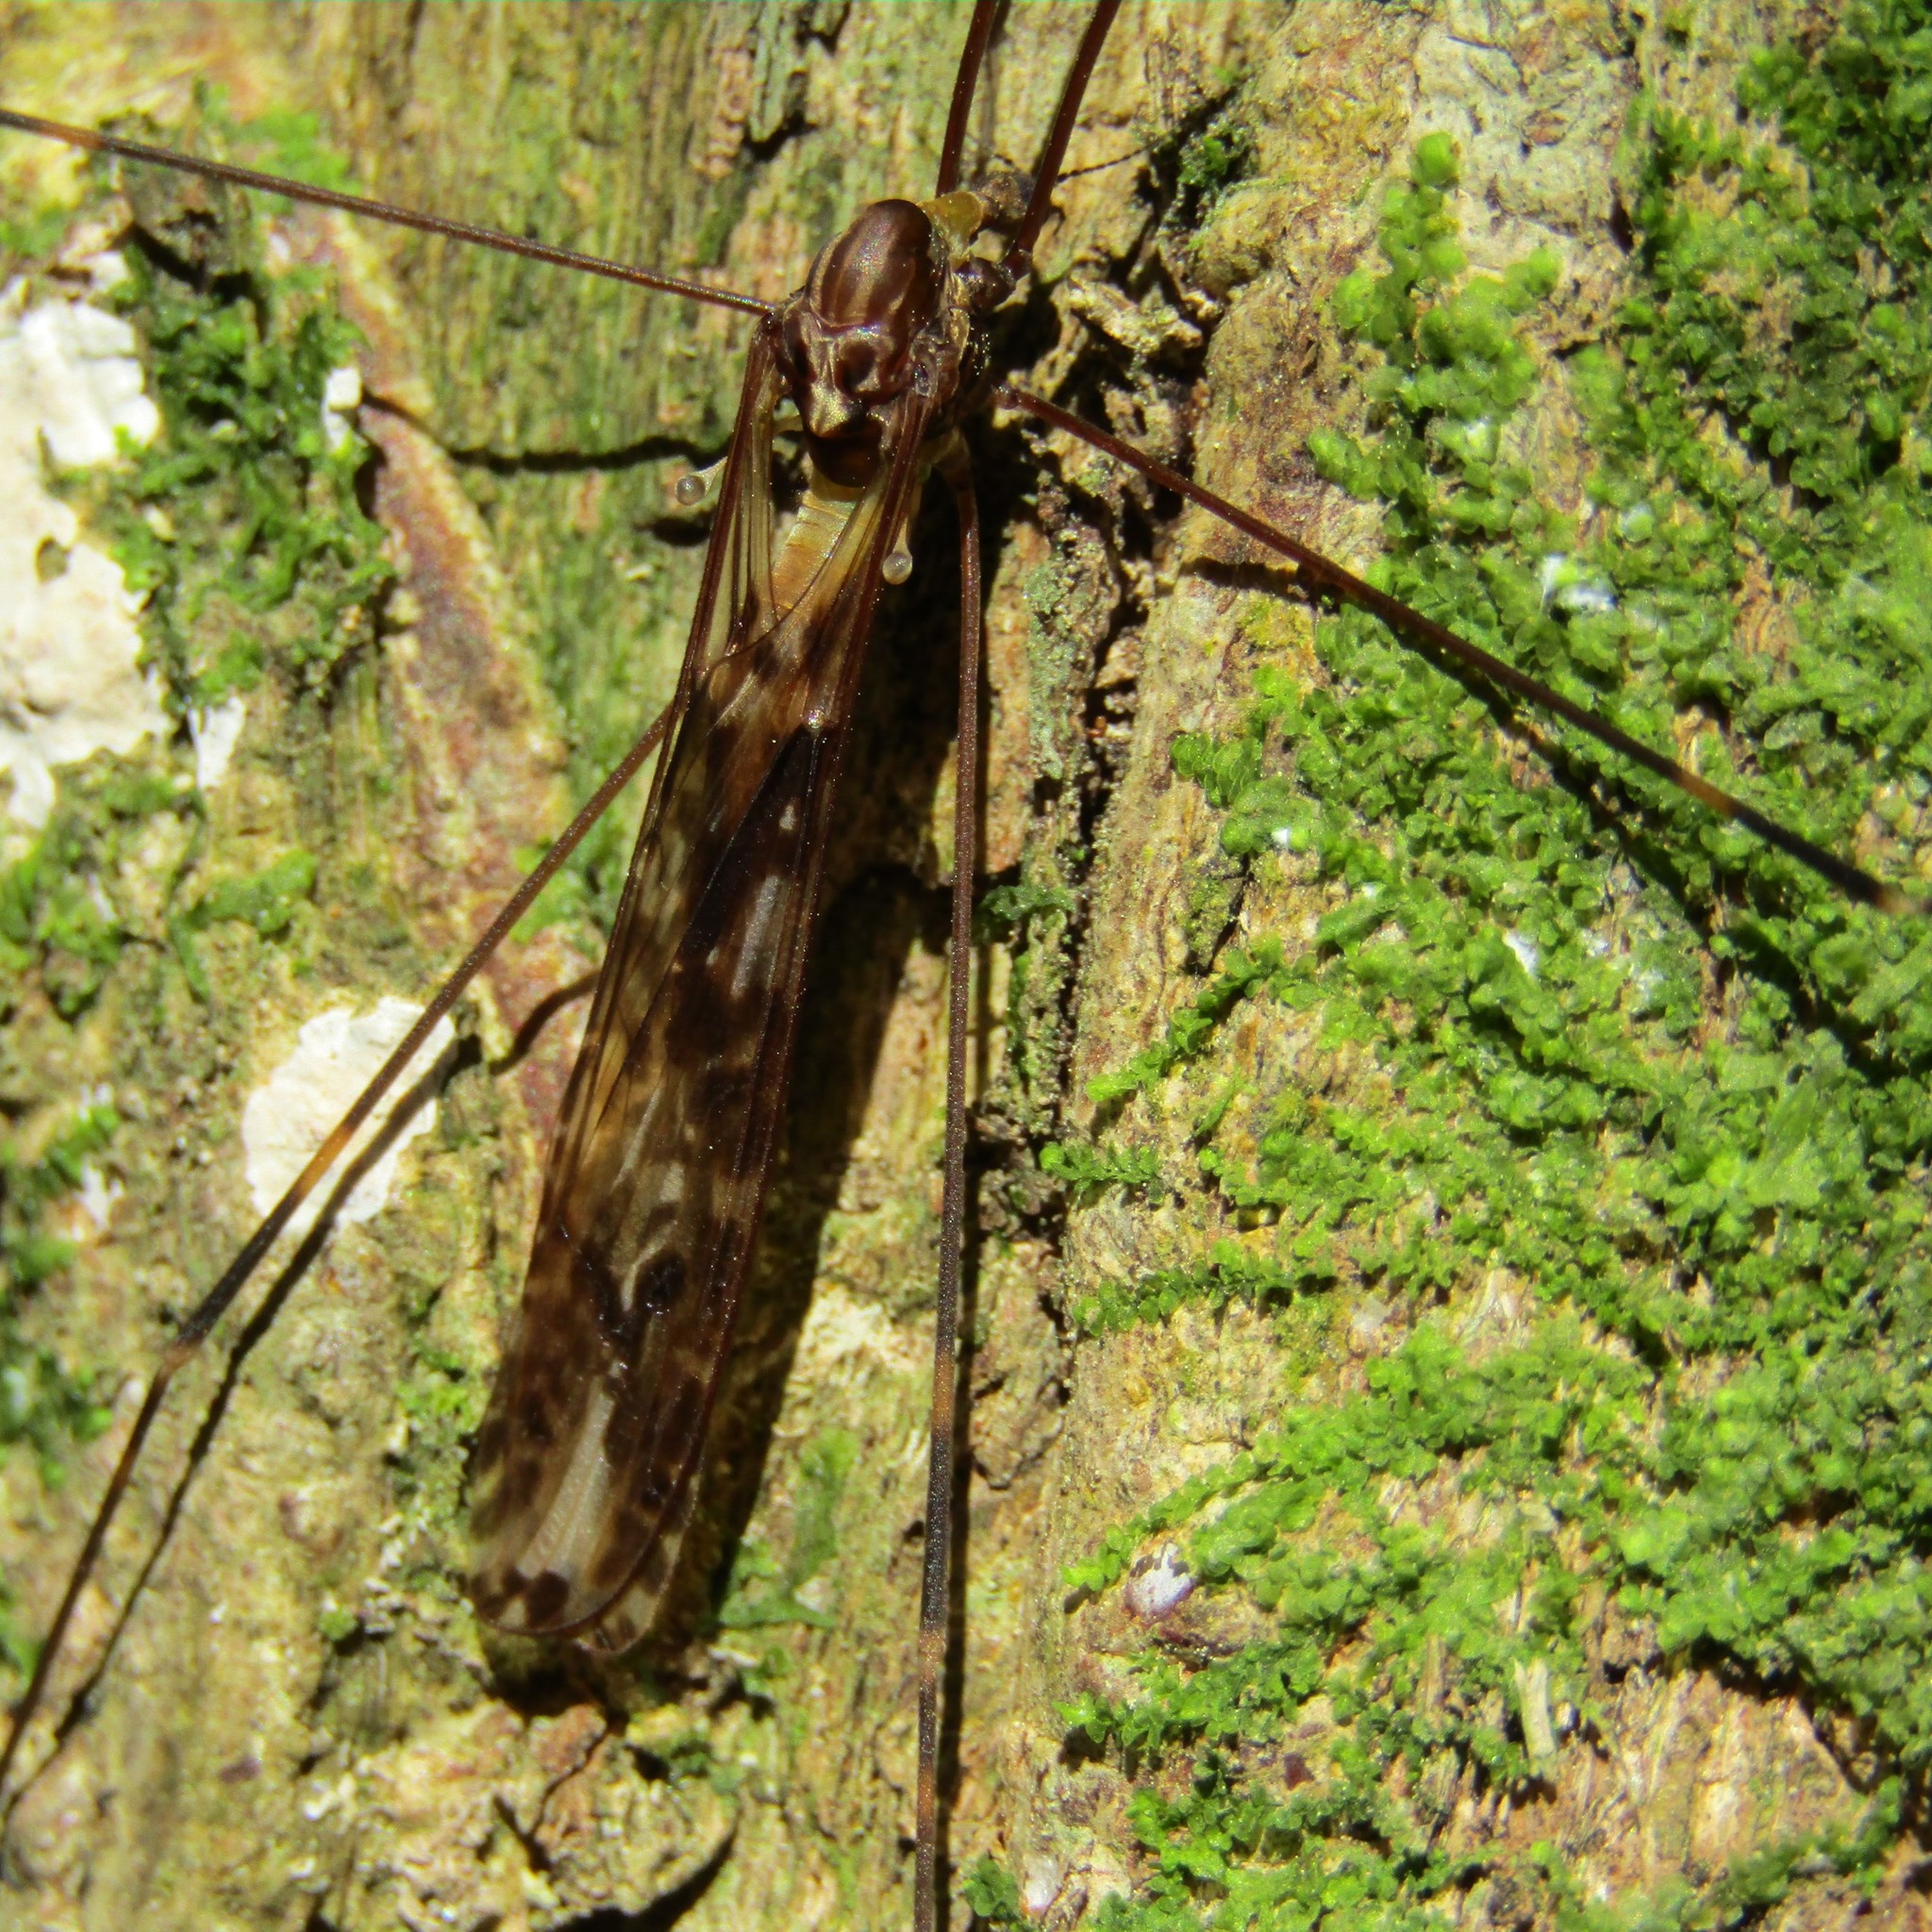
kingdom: Animalia
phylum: Arthropoda
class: Insecta
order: Diptera
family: Limoniidae
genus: Discobola
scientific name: Discobola dohrni
